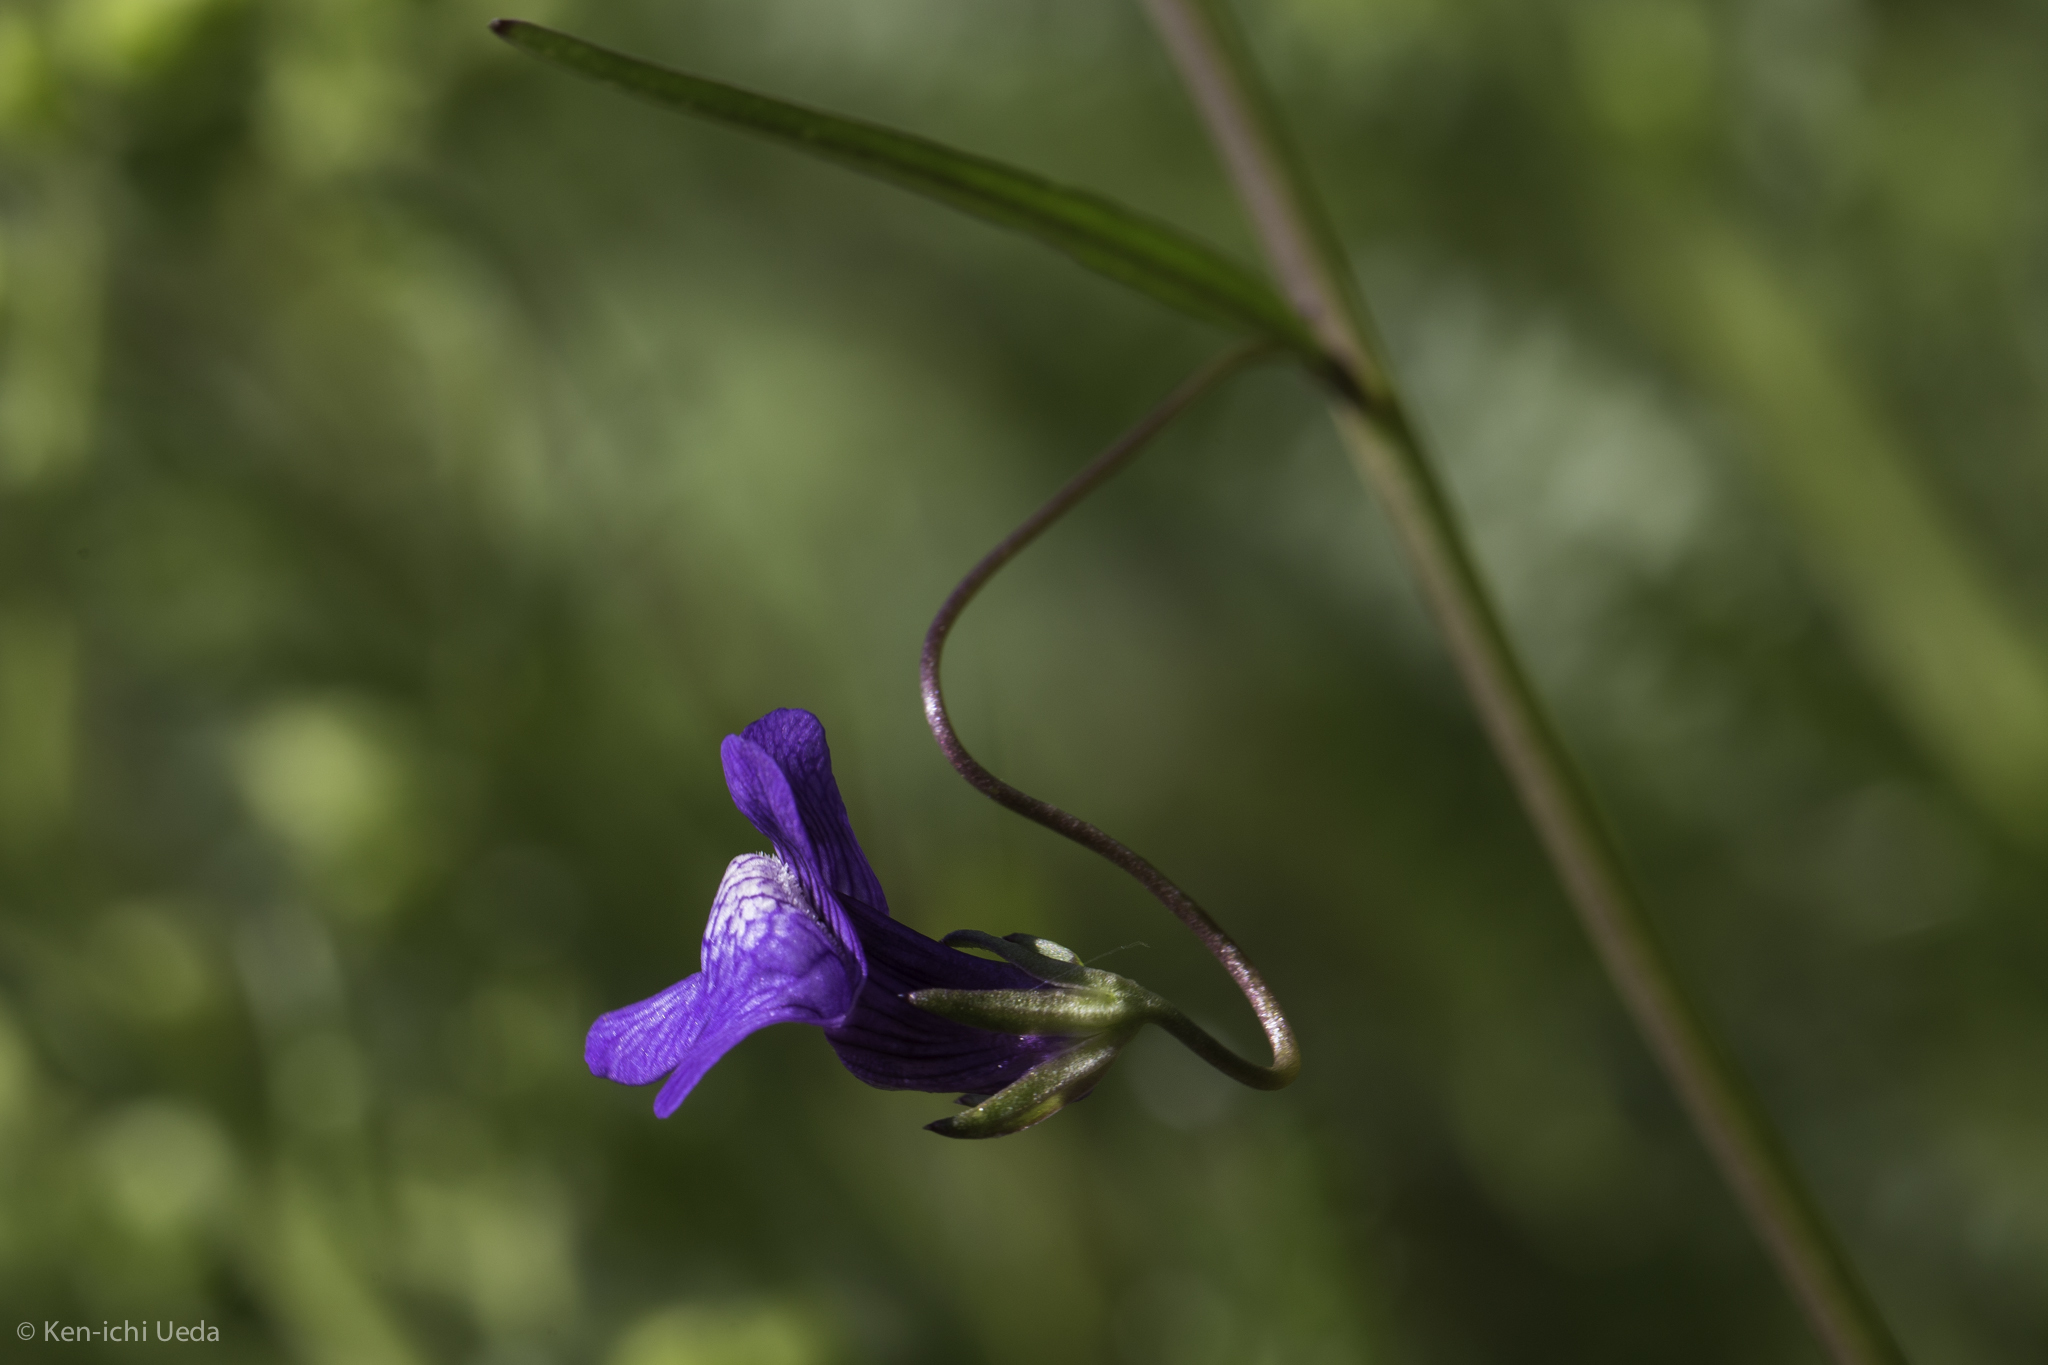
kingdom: Plantae
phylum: Tracheophyta
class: Magnoliopsida
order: Lamiales
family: Plantaginaceae
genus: Neogaerrhinum
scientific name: Neogaerrhinum strictum
